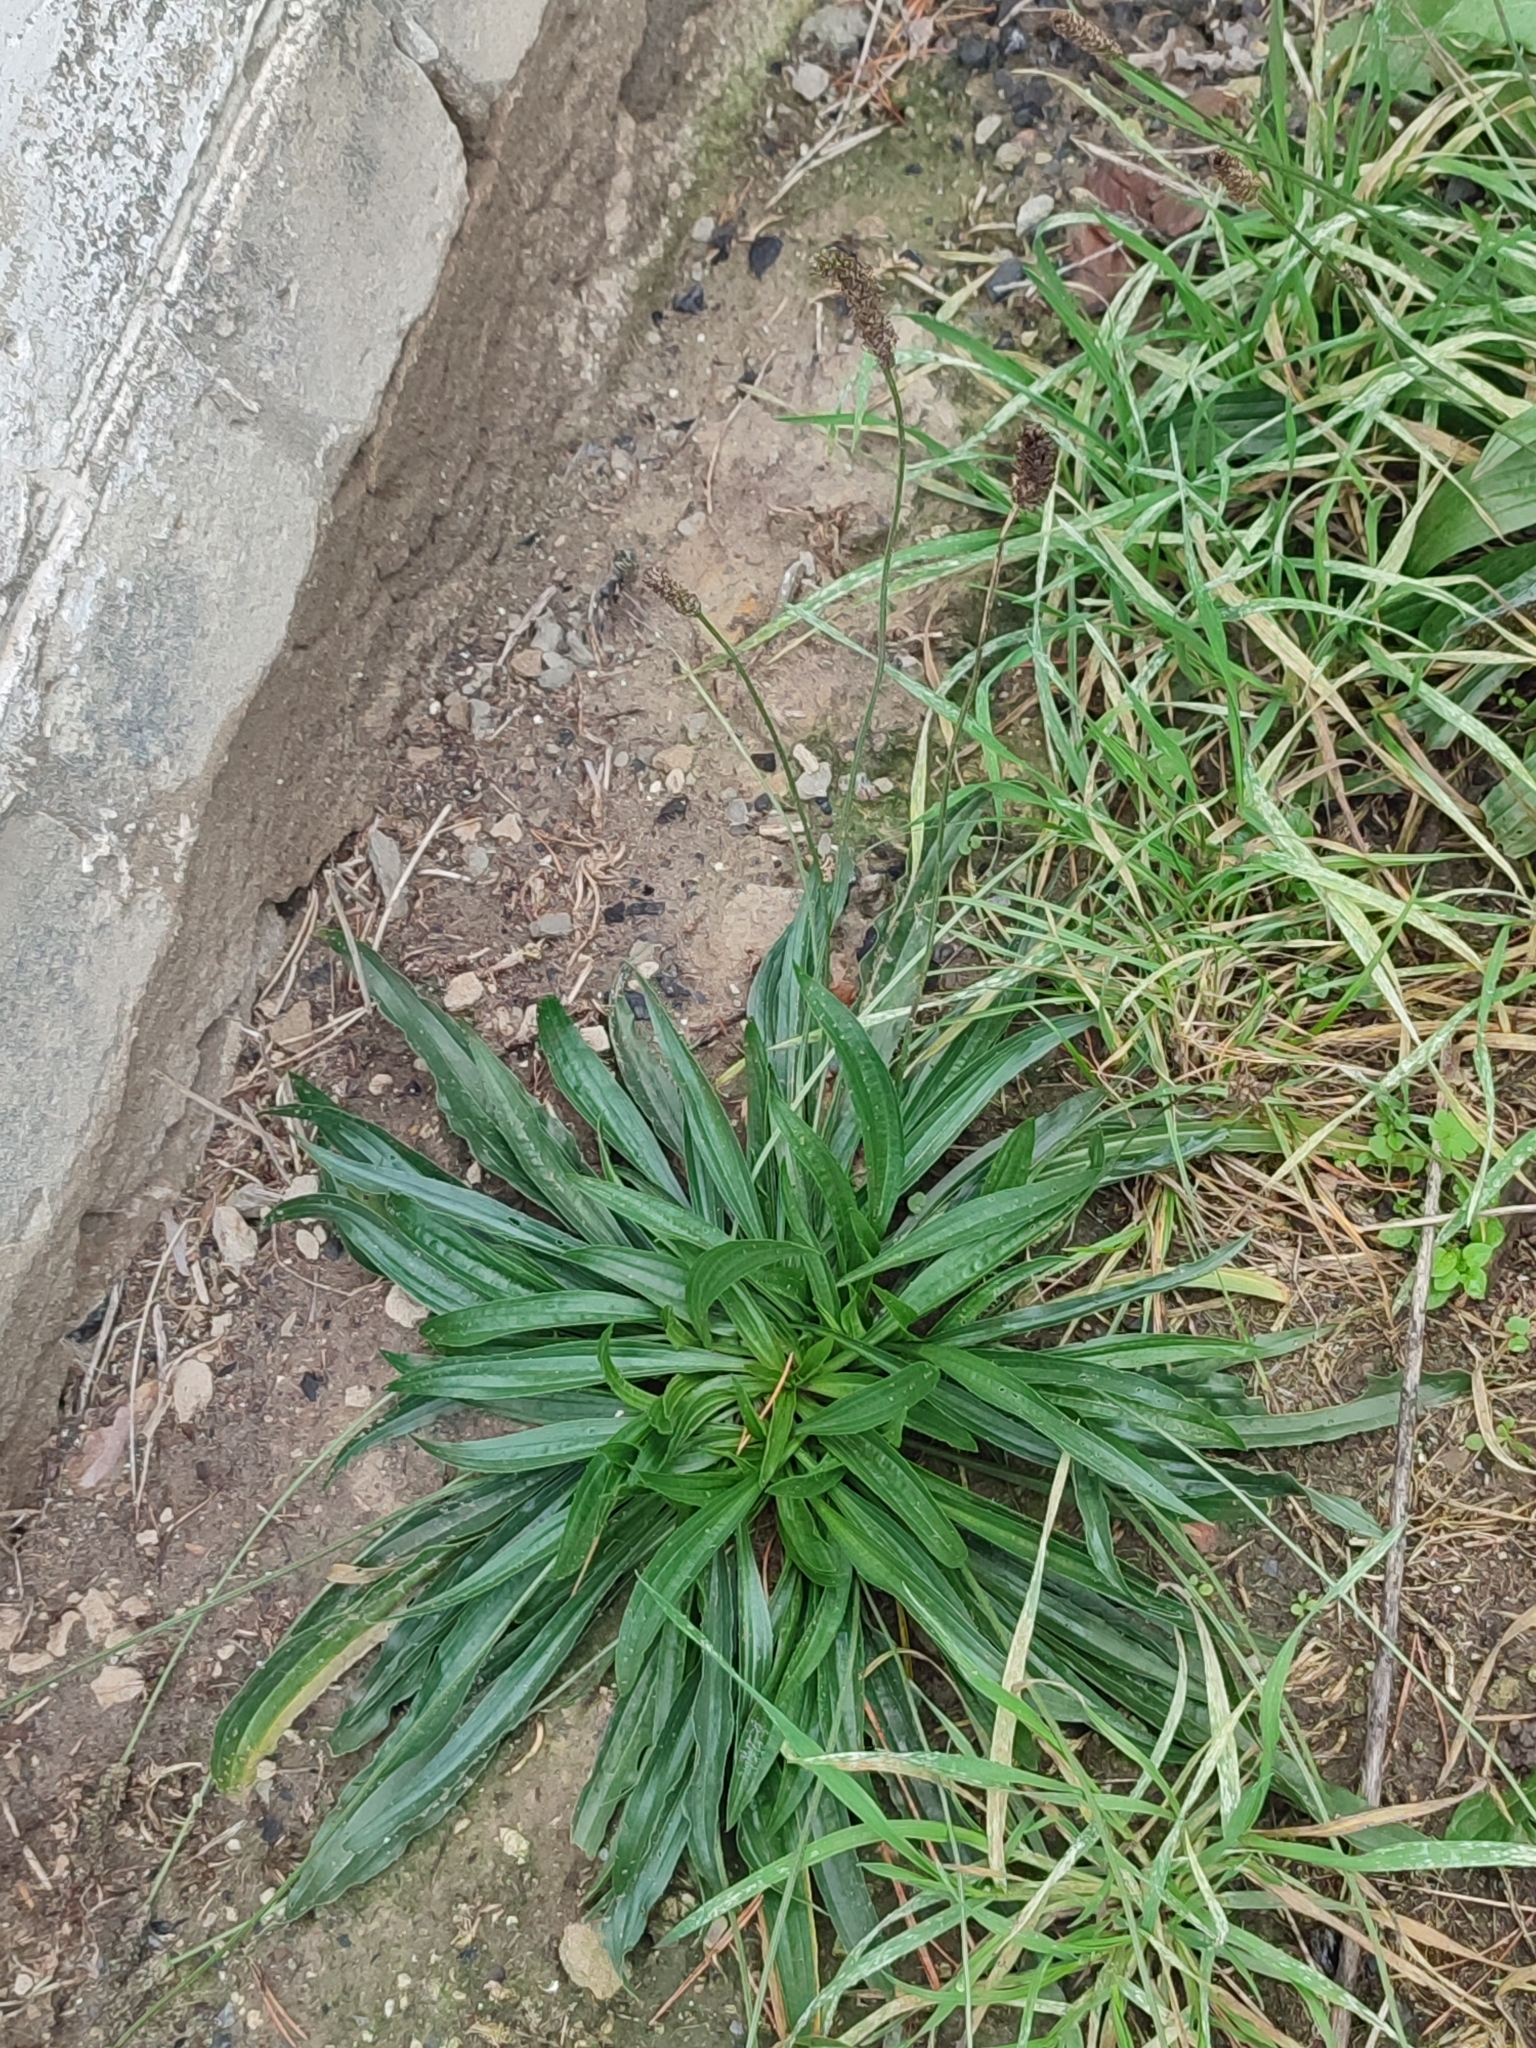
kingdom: Plantae
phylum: Tracheophyta
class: Magnoliopsida
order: Lamiales
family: Plantaginaceae
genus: Plantago
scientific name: Plantago lanceolata
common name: Ribwort plantain
